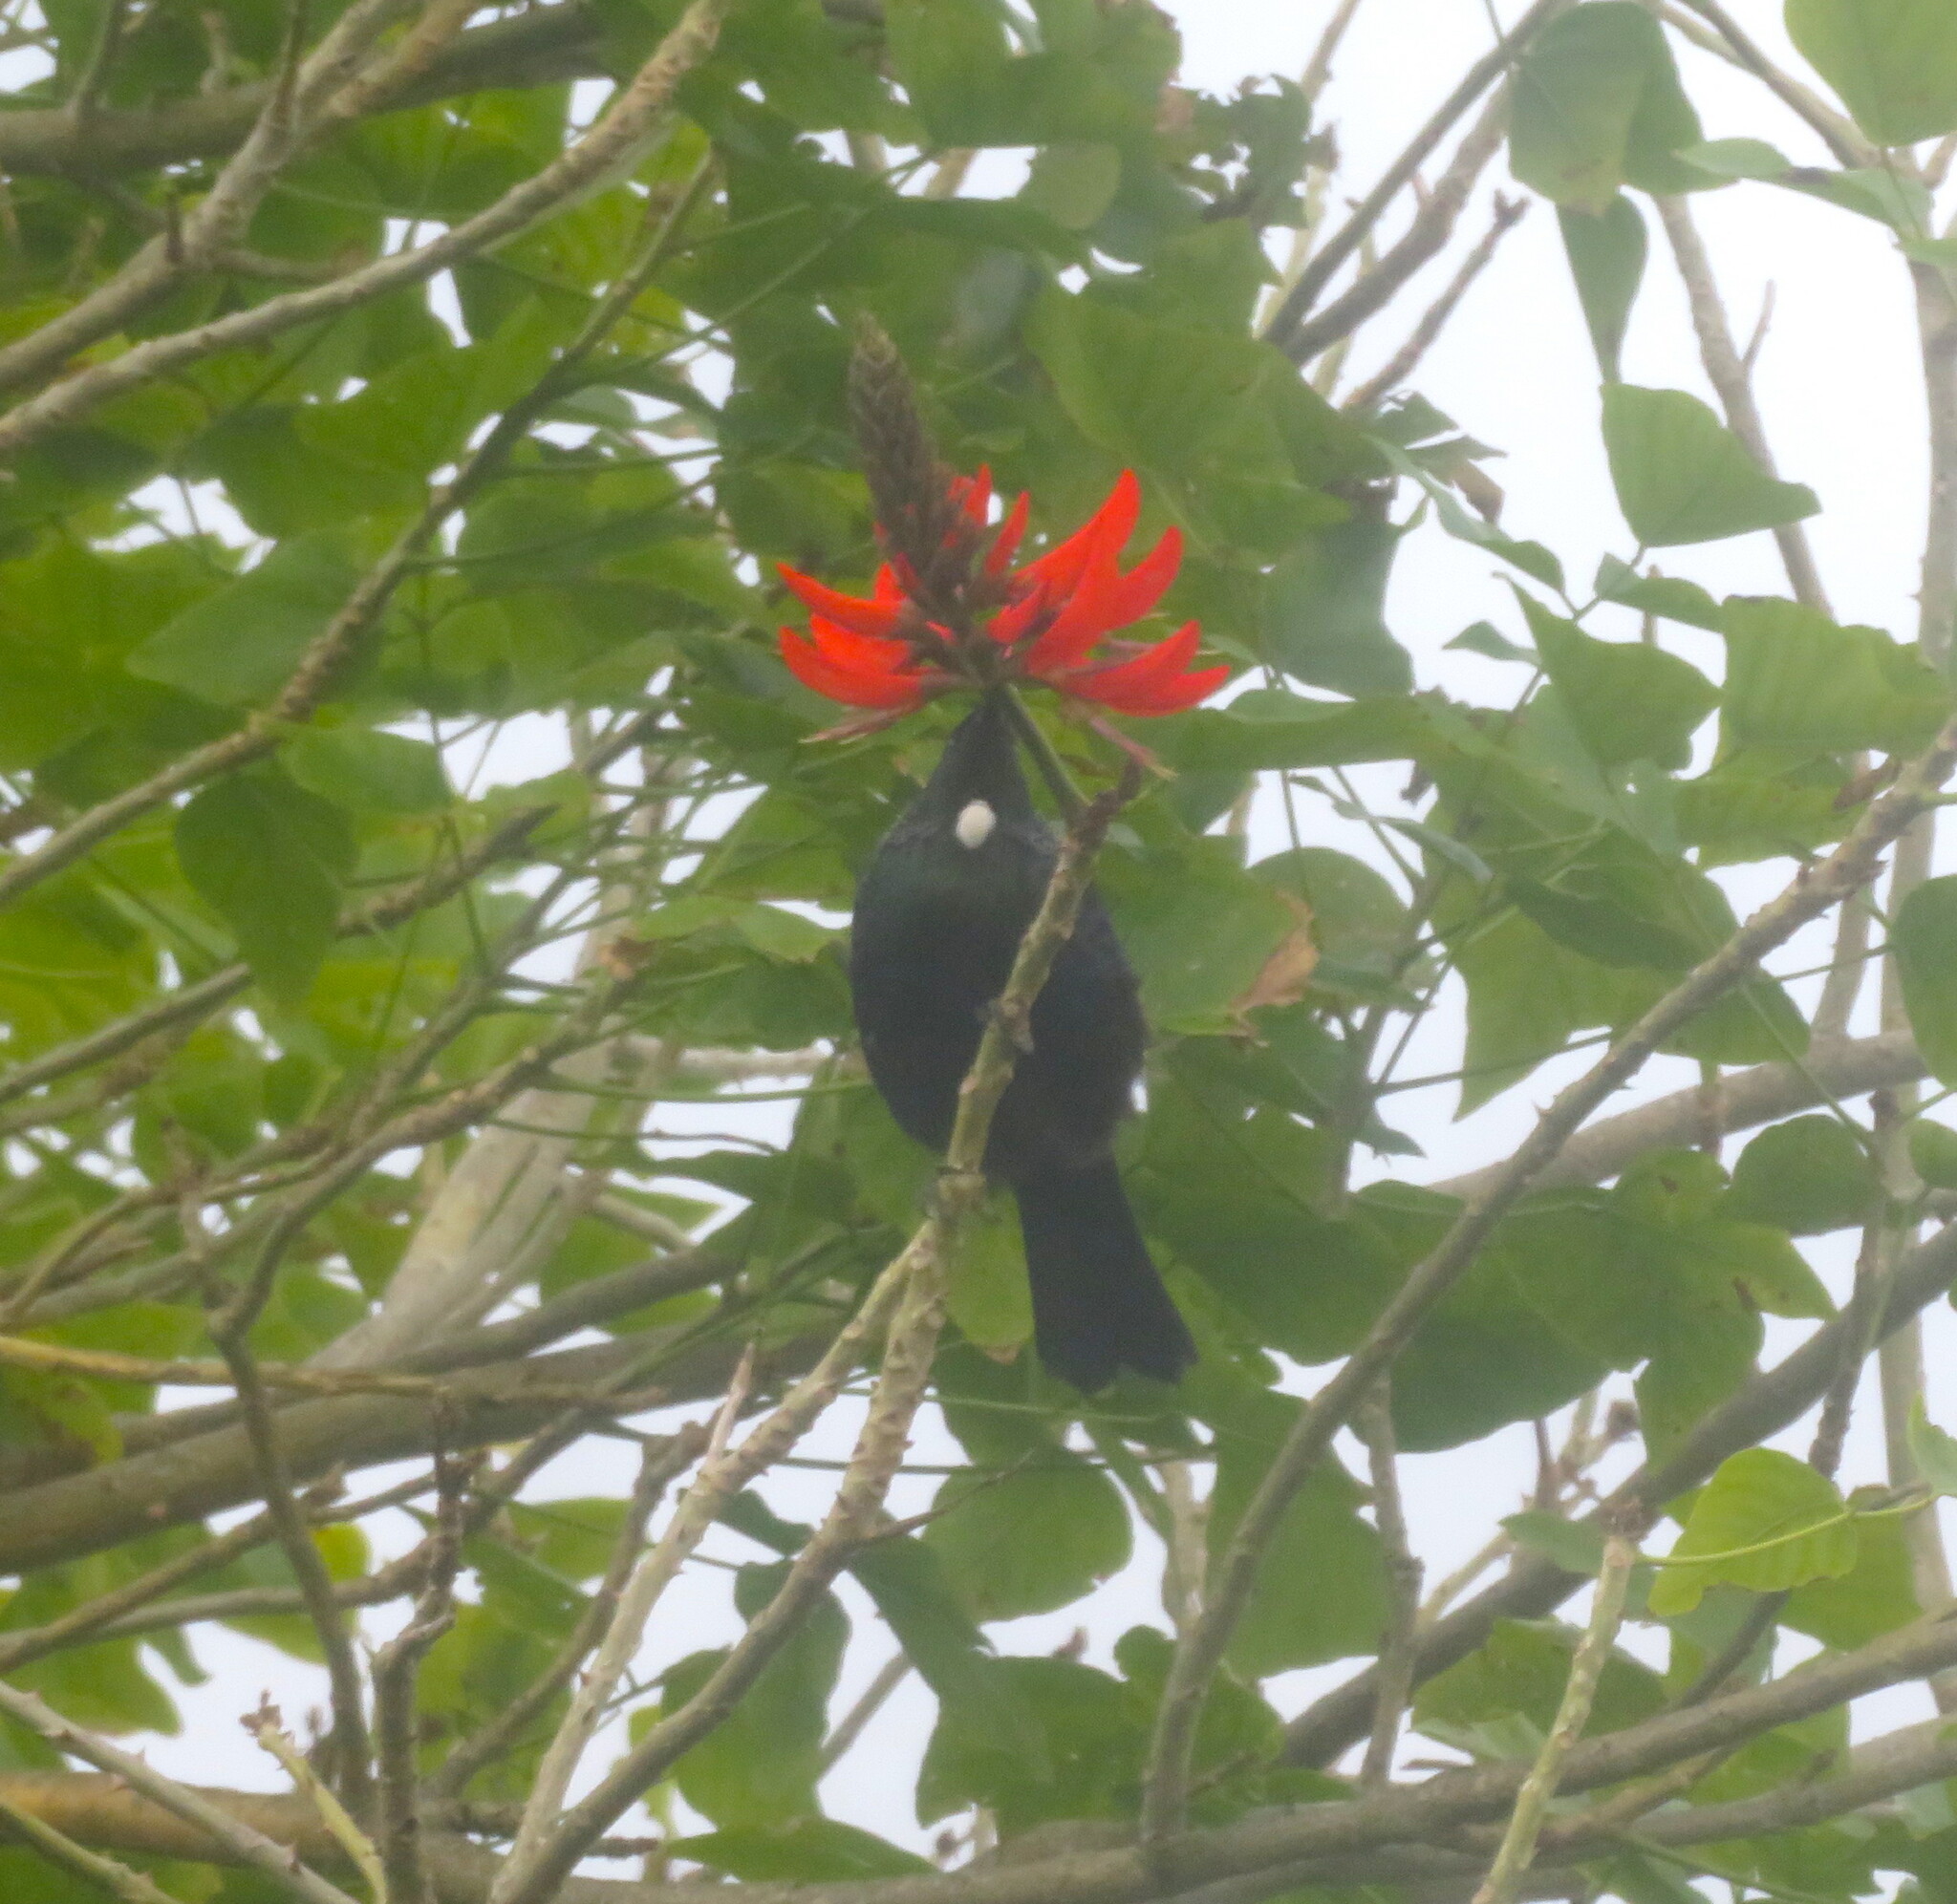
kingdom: Animalia
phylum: Chordata
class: Aves
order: Passeriformes
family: Meliphagidae
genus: Prosthemadera
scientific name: Prosthemadera novaeseelandiae
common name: Tui
